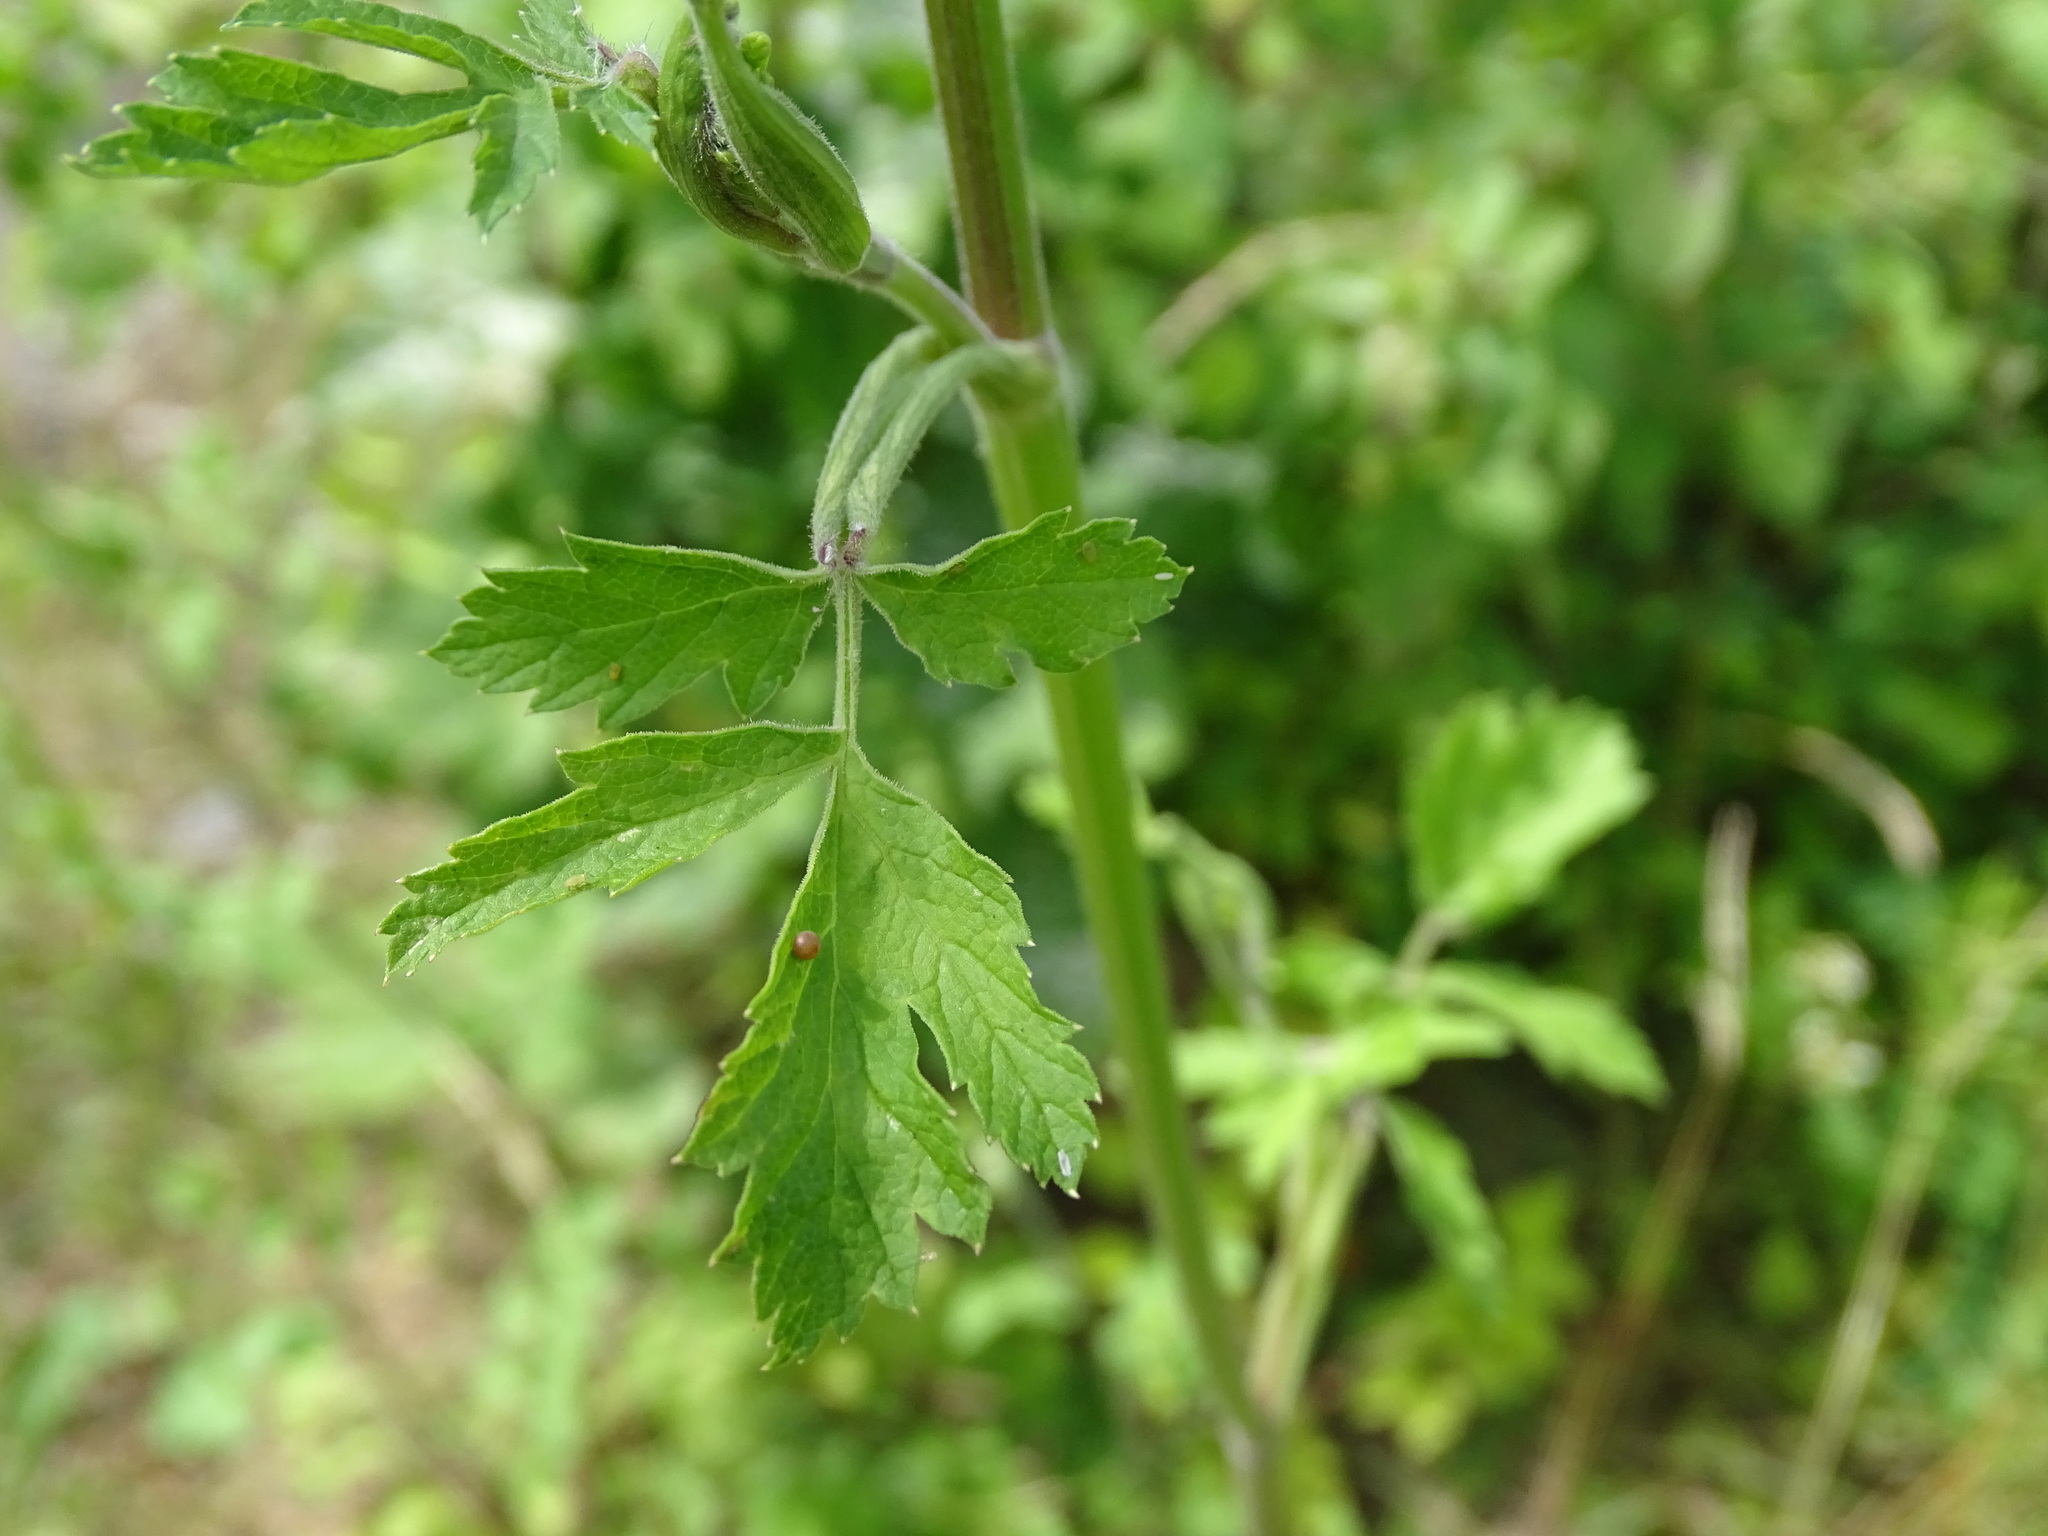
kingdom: Animalia
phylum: Arthropoda
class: Insecta
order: Lepidoptera
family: Papilionidae
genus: Papilio
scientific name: Papilio machaon
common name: Swallowtail
